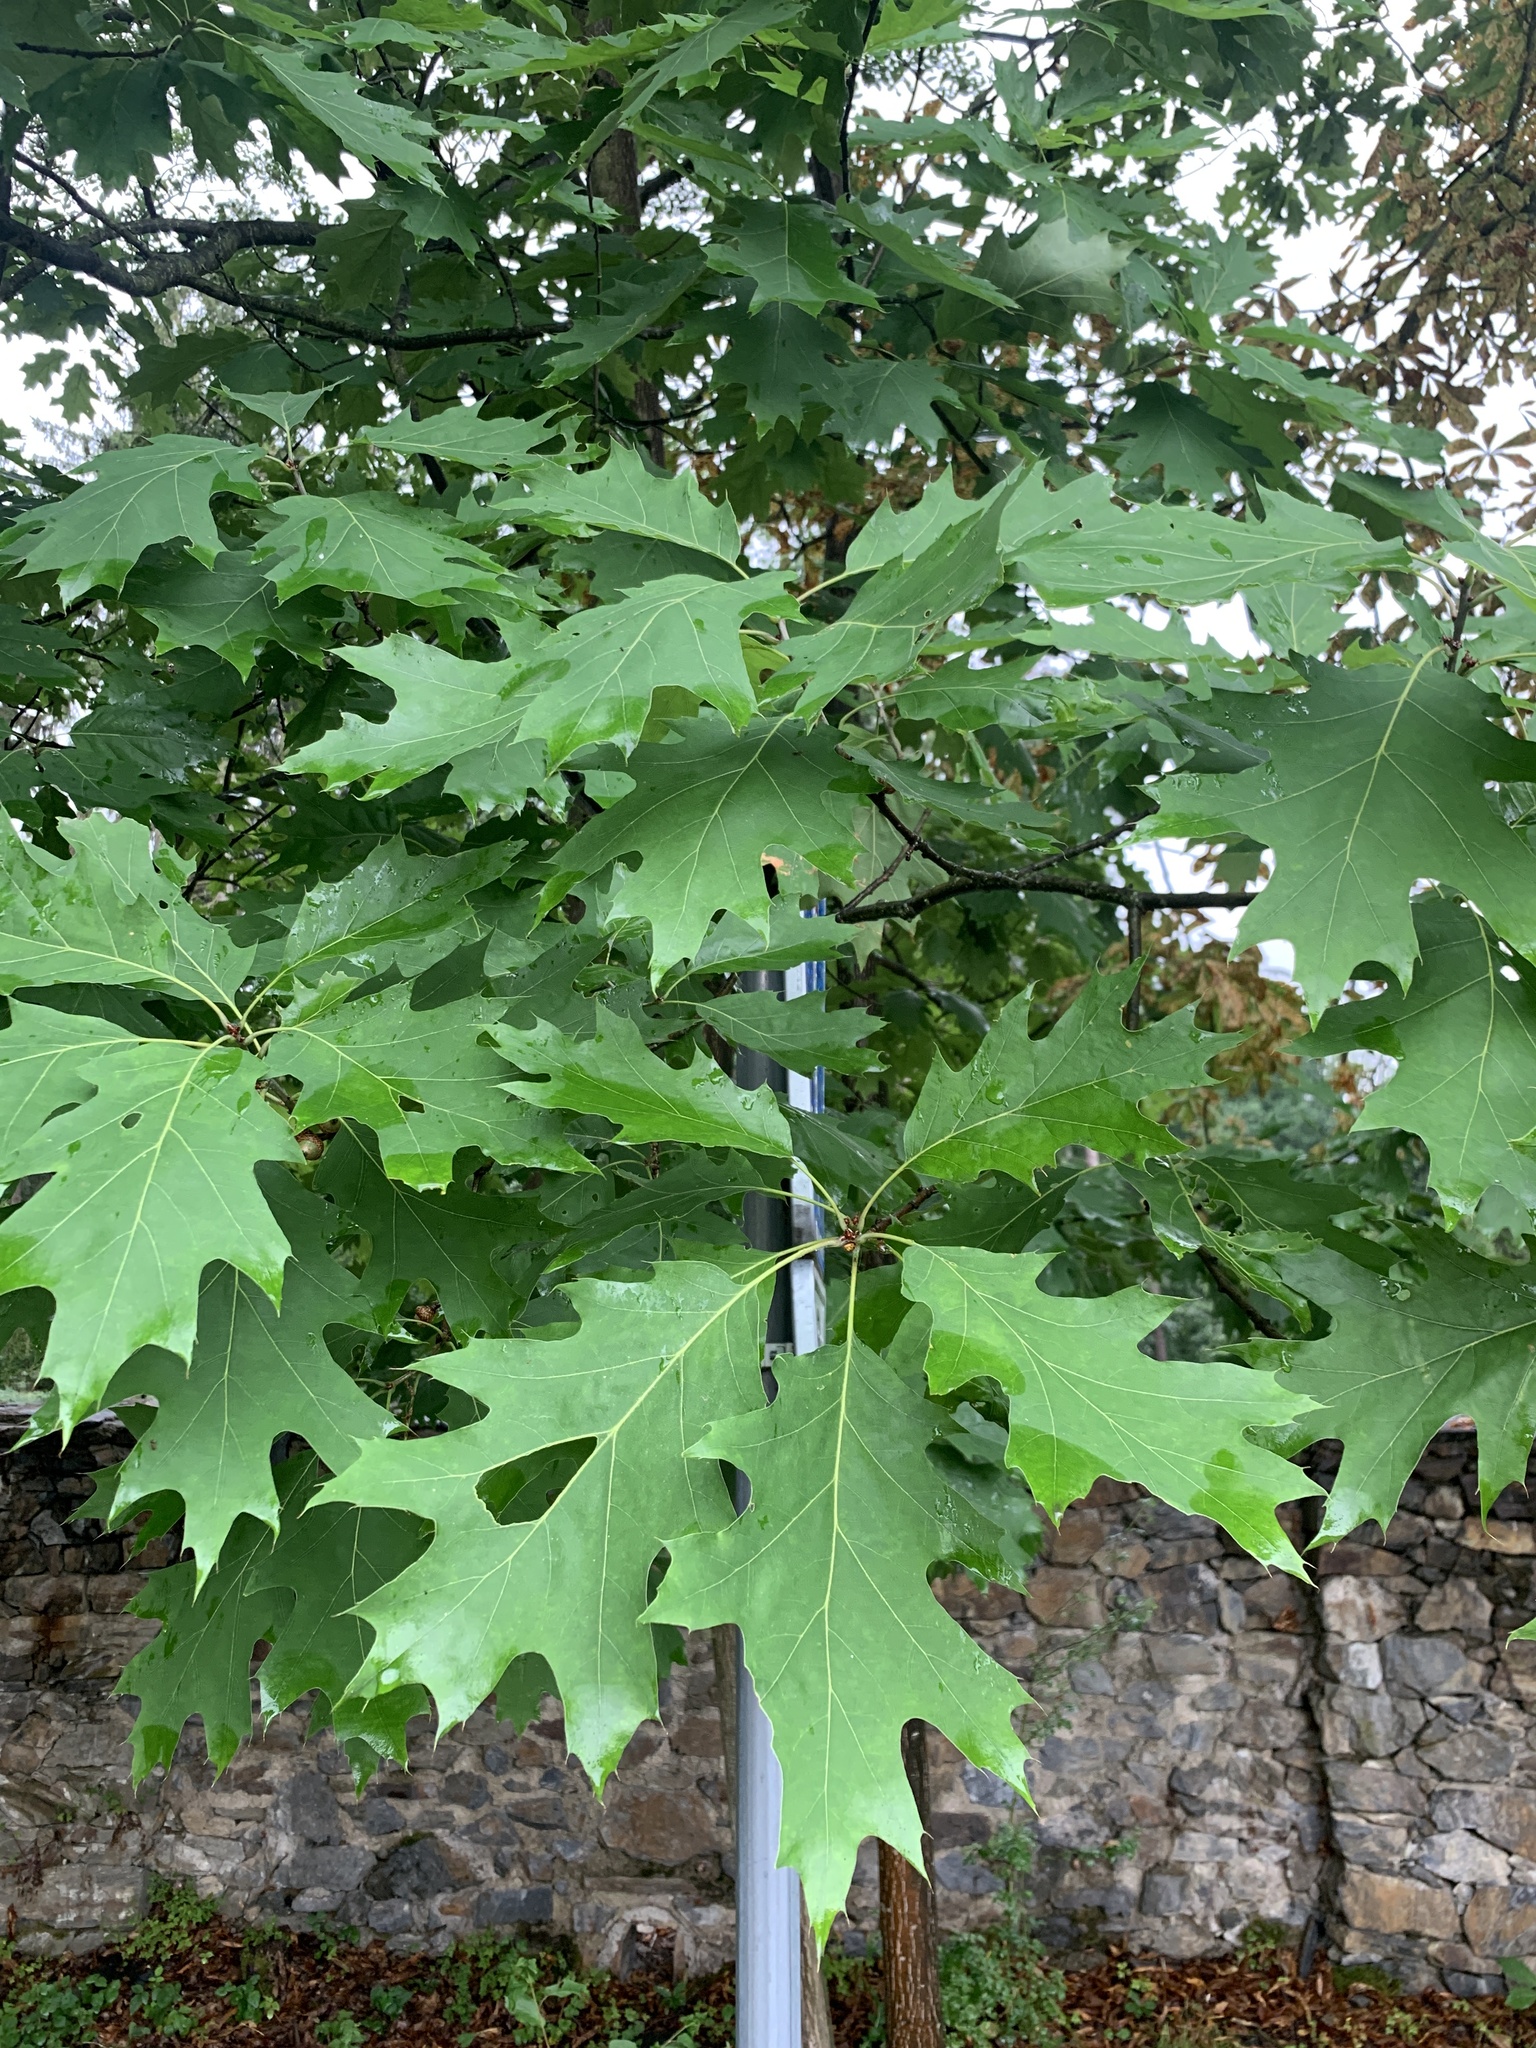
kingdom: Plantae
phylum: Tracheophyta
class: Magnoliopsida
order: Fagales
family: Fagaceae
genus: Quercus
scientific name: Quercus rubra
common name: Red oak
